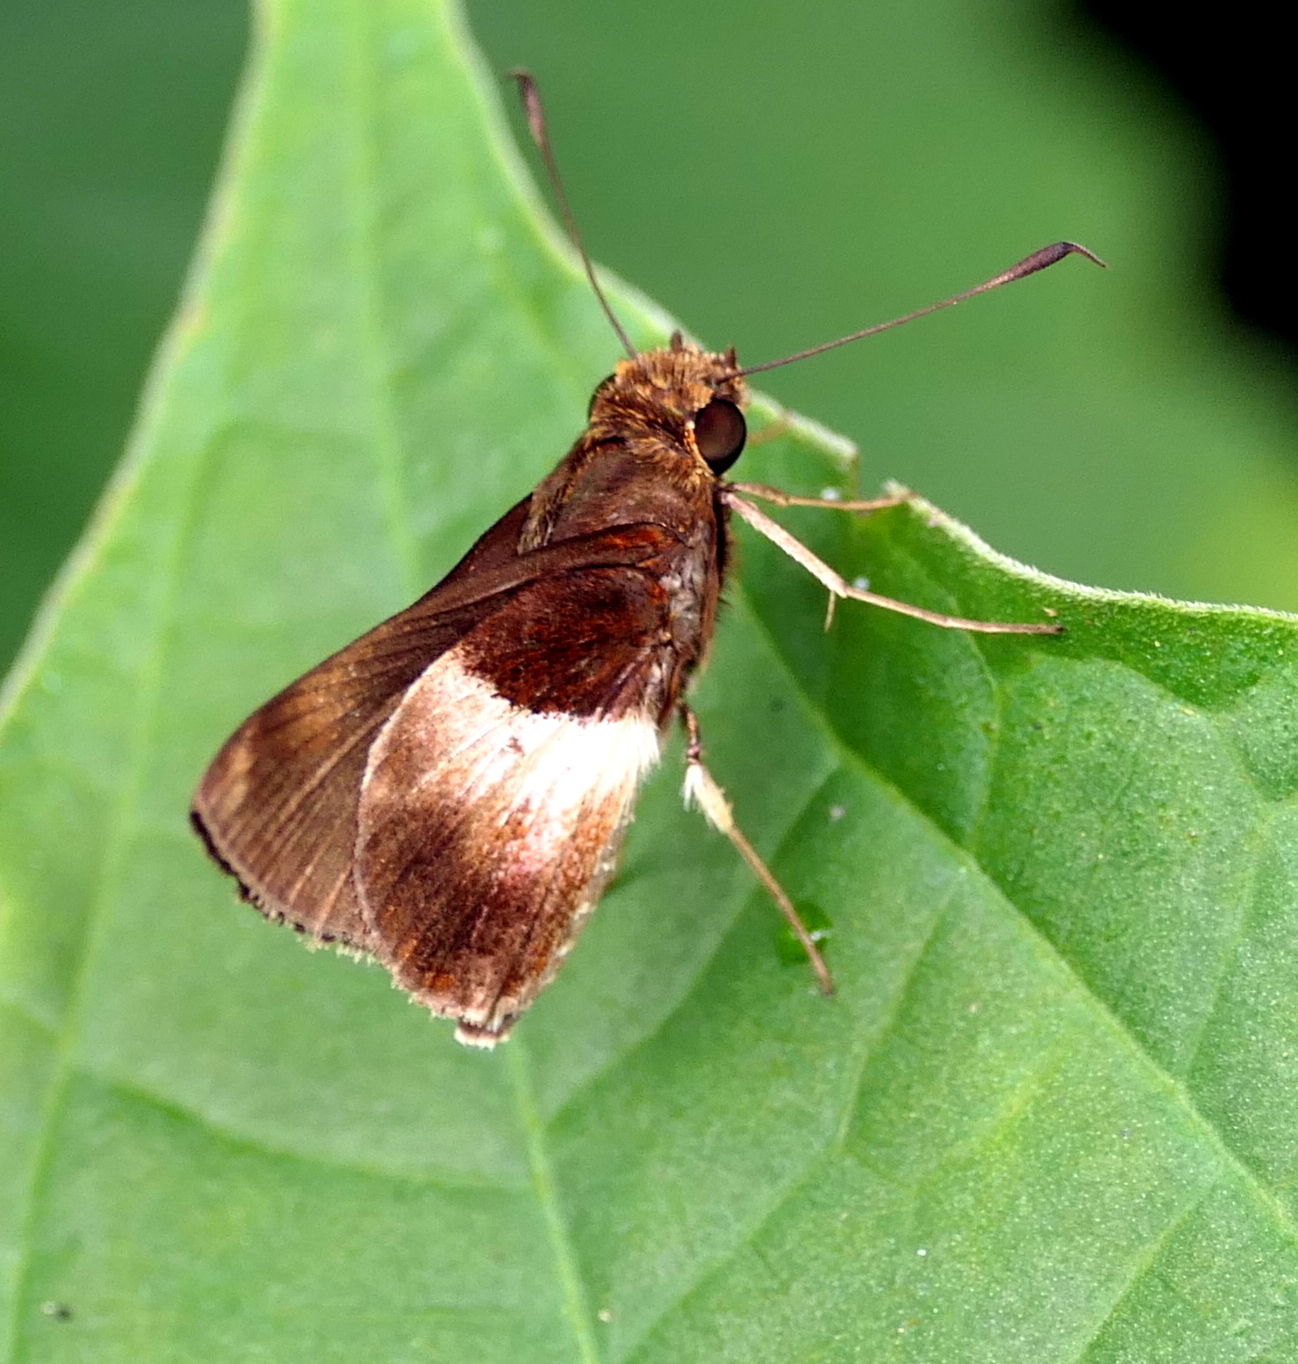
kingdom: Animalia
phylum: Arthropoda
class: Insecta
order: Lepidoptera
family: Hesperiidae
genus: Moeris
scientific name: Moeris remus
